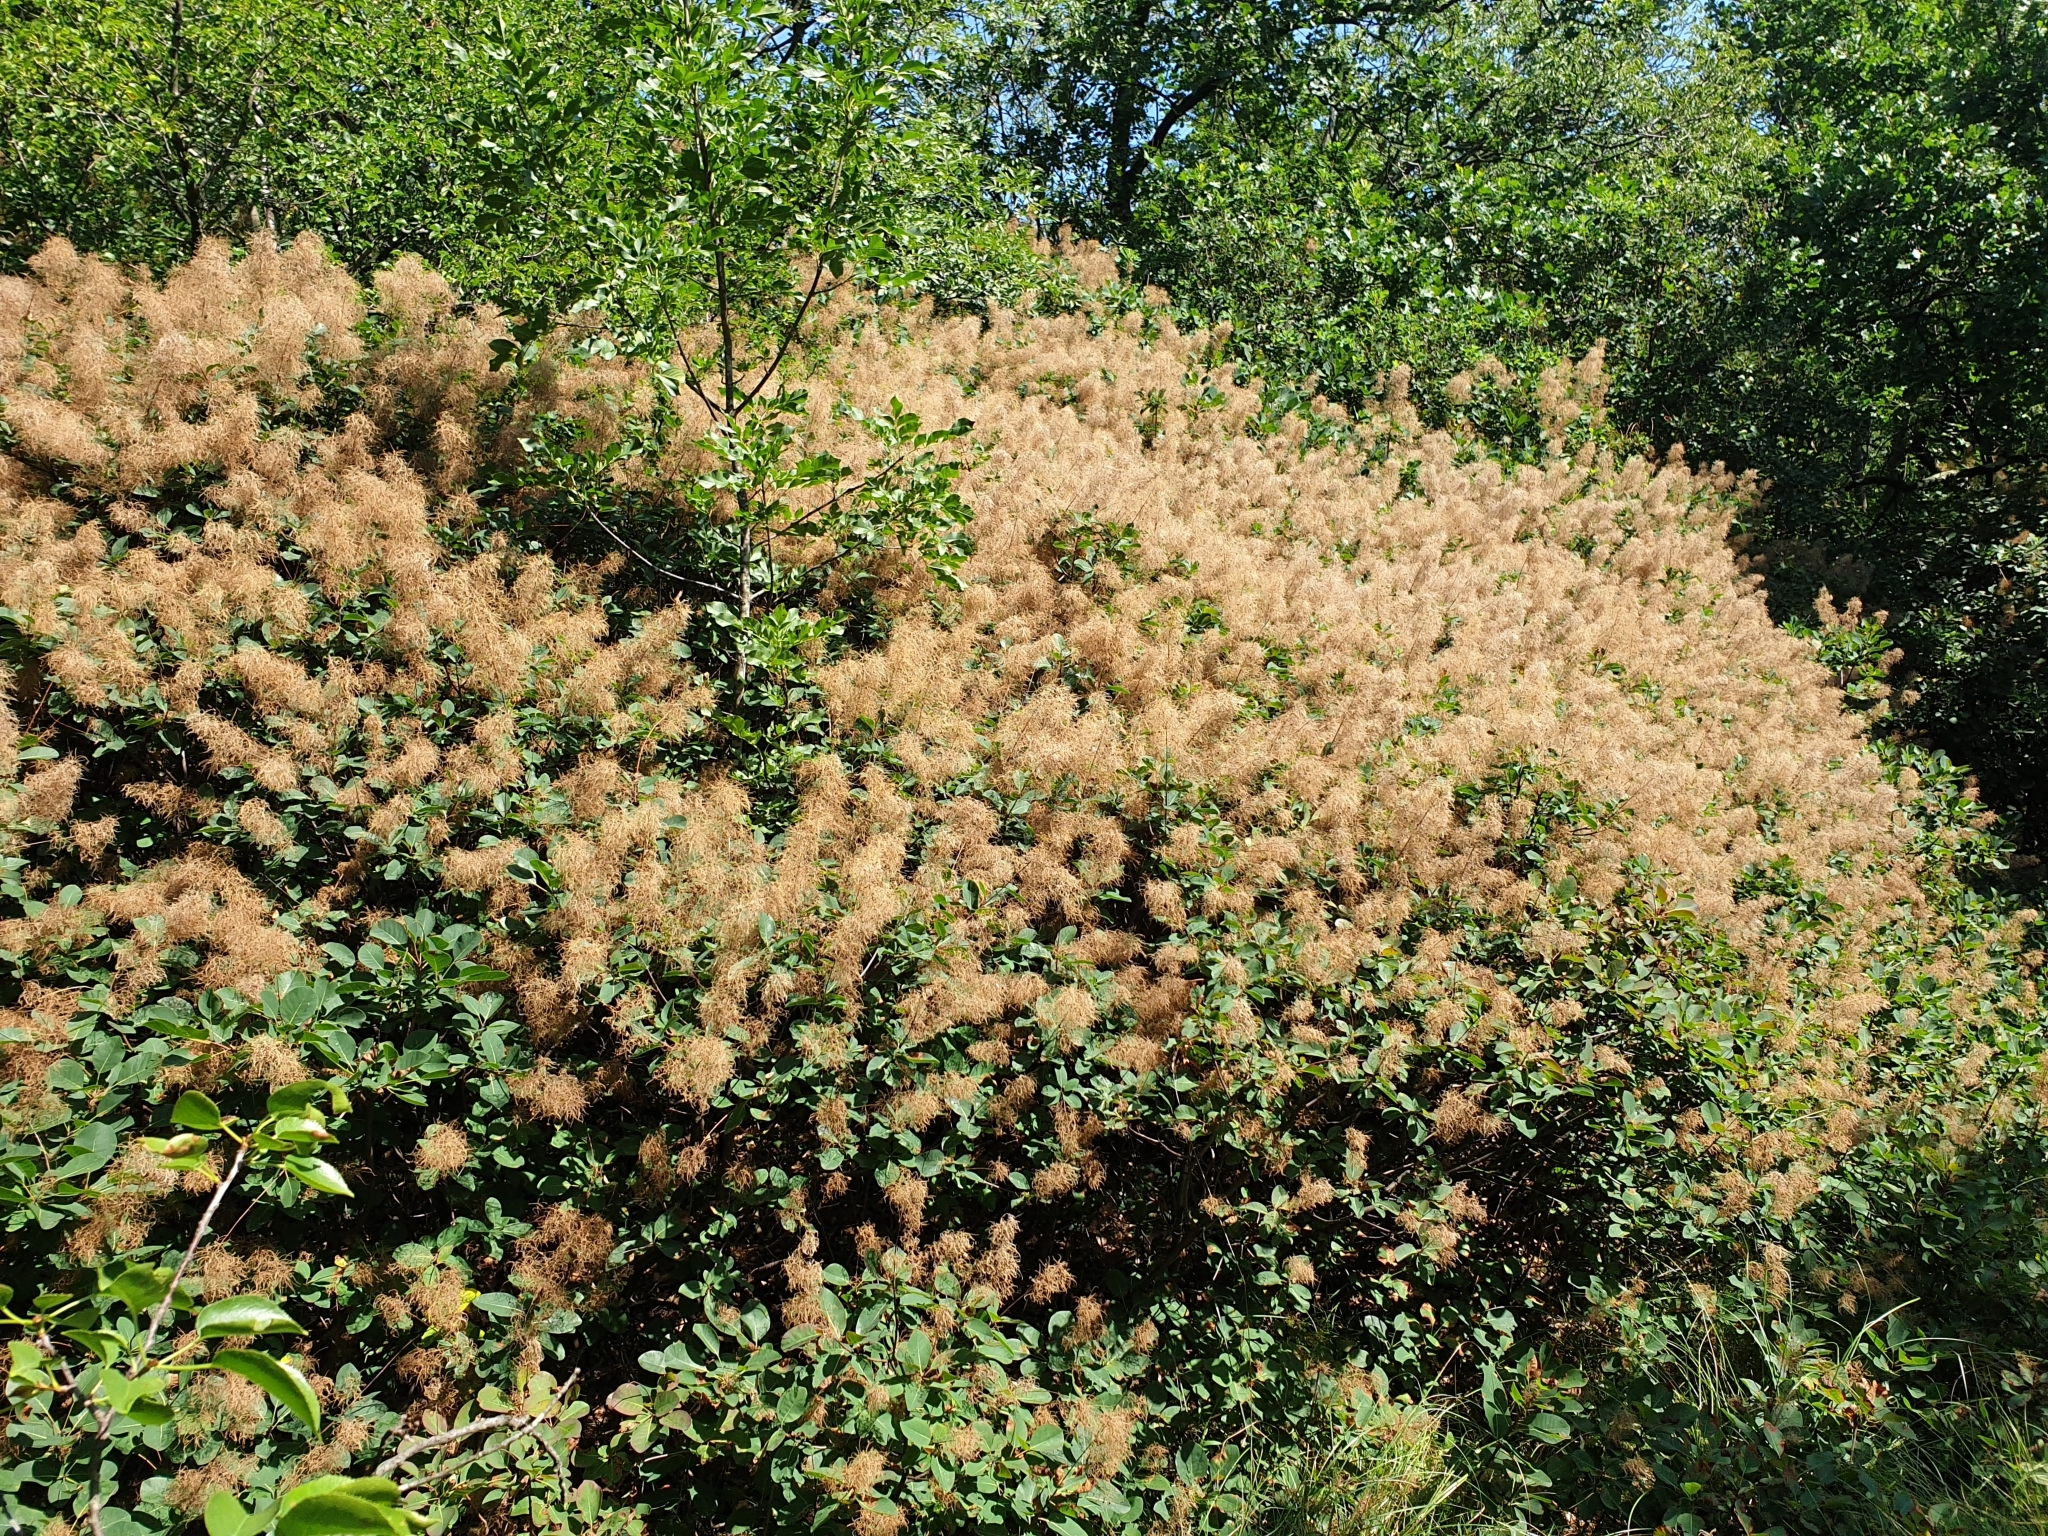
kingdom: Plantae
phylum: Tracheophyta
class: Magnoliopsida
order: Sapindales
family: Anacardiaceae
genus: Cotinus
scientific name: Cotinus coggygria
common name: Smoke-tree
